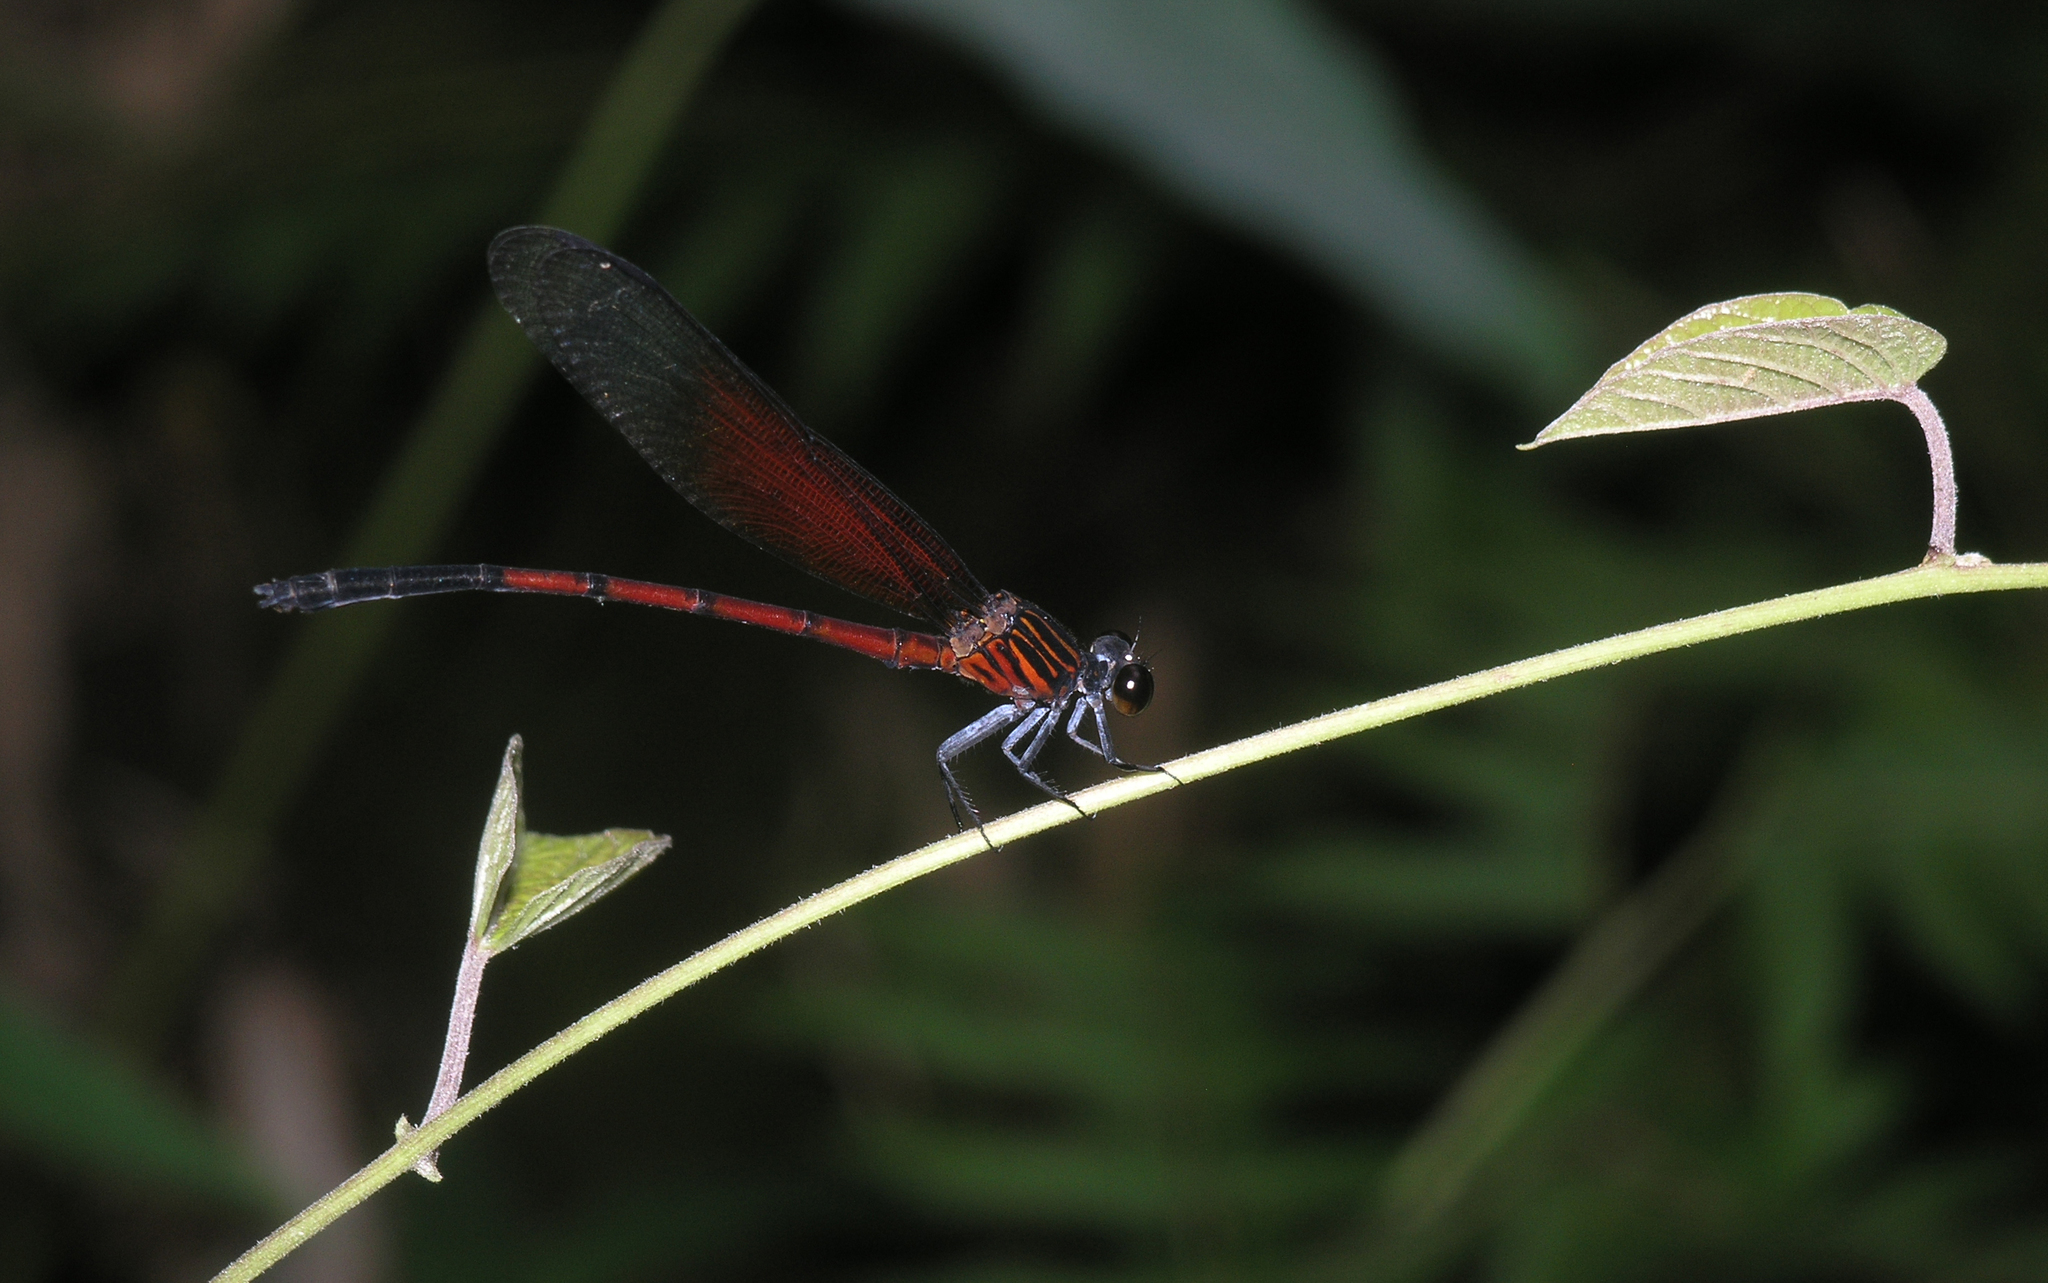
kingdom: Animalia
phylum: Arthropoda
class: Insecta
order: Odonata
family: Euphaeidae
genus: Euphaea
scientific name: Euphaea sanguinea
